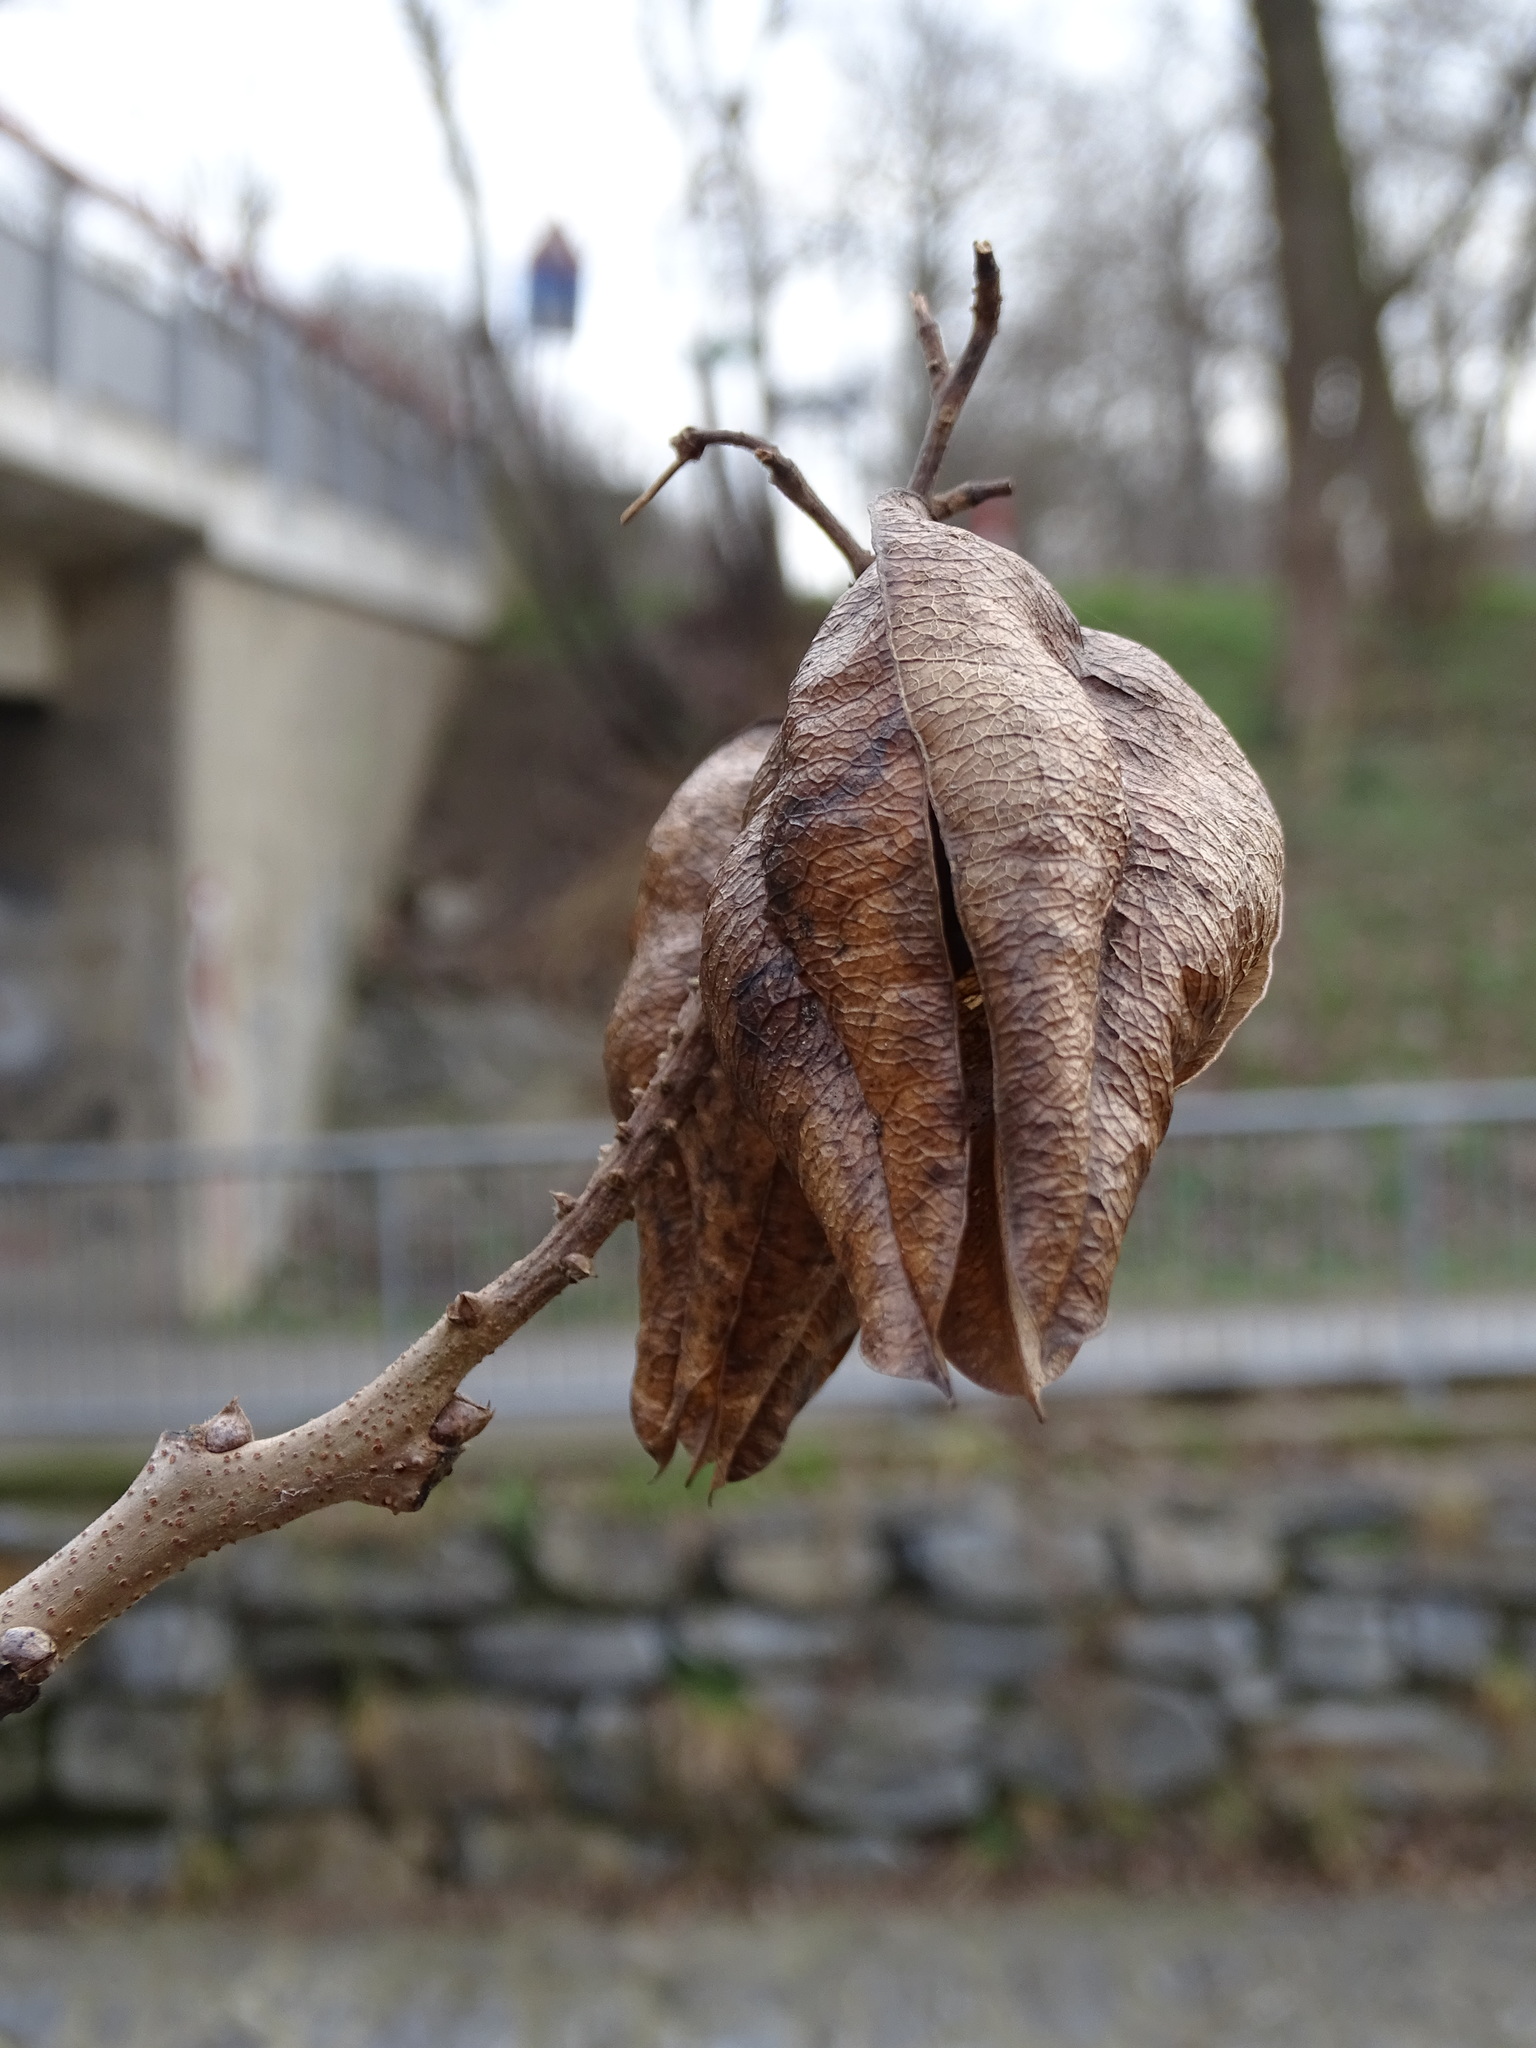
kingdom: Plantae
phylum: Tracheophyta
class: Magnoliopsida
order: Sapindales
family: Sapindaceae
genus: Koelreuteria
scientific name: Koelreuteria paniculata
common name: Pride-of-india
